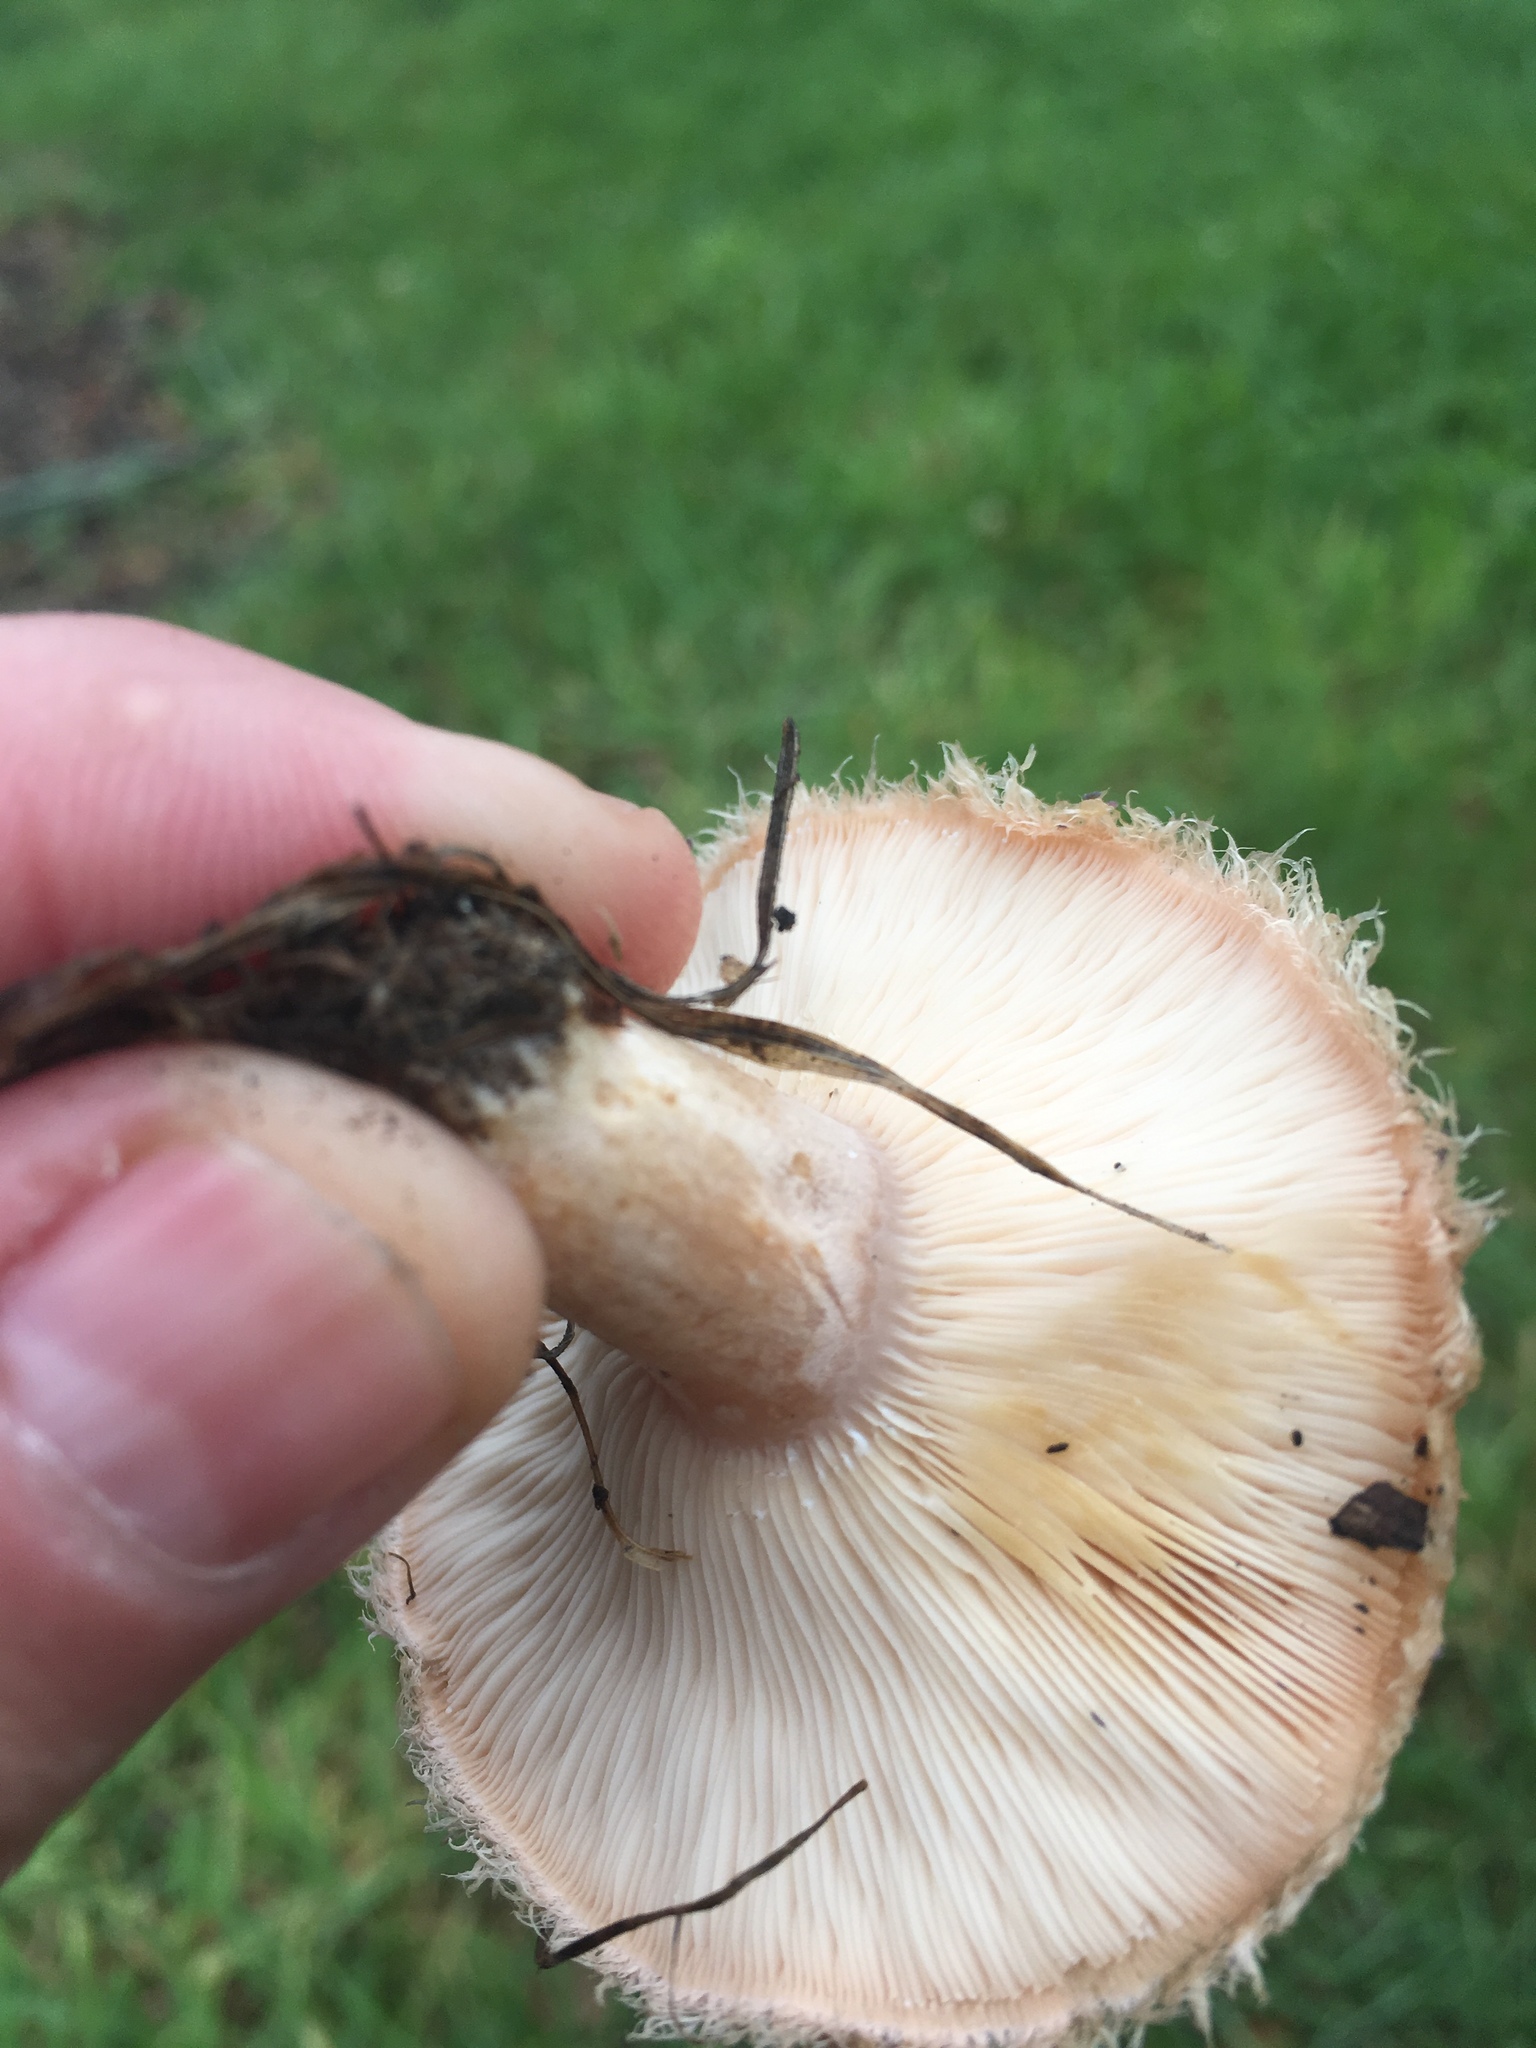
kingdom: Fungi
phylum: Basidiomycota
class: Agaricomycetes
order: Russulales
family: Russulaceae
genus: Lactarius
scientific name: Lactarius pubescens
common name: Bearded milkcap
